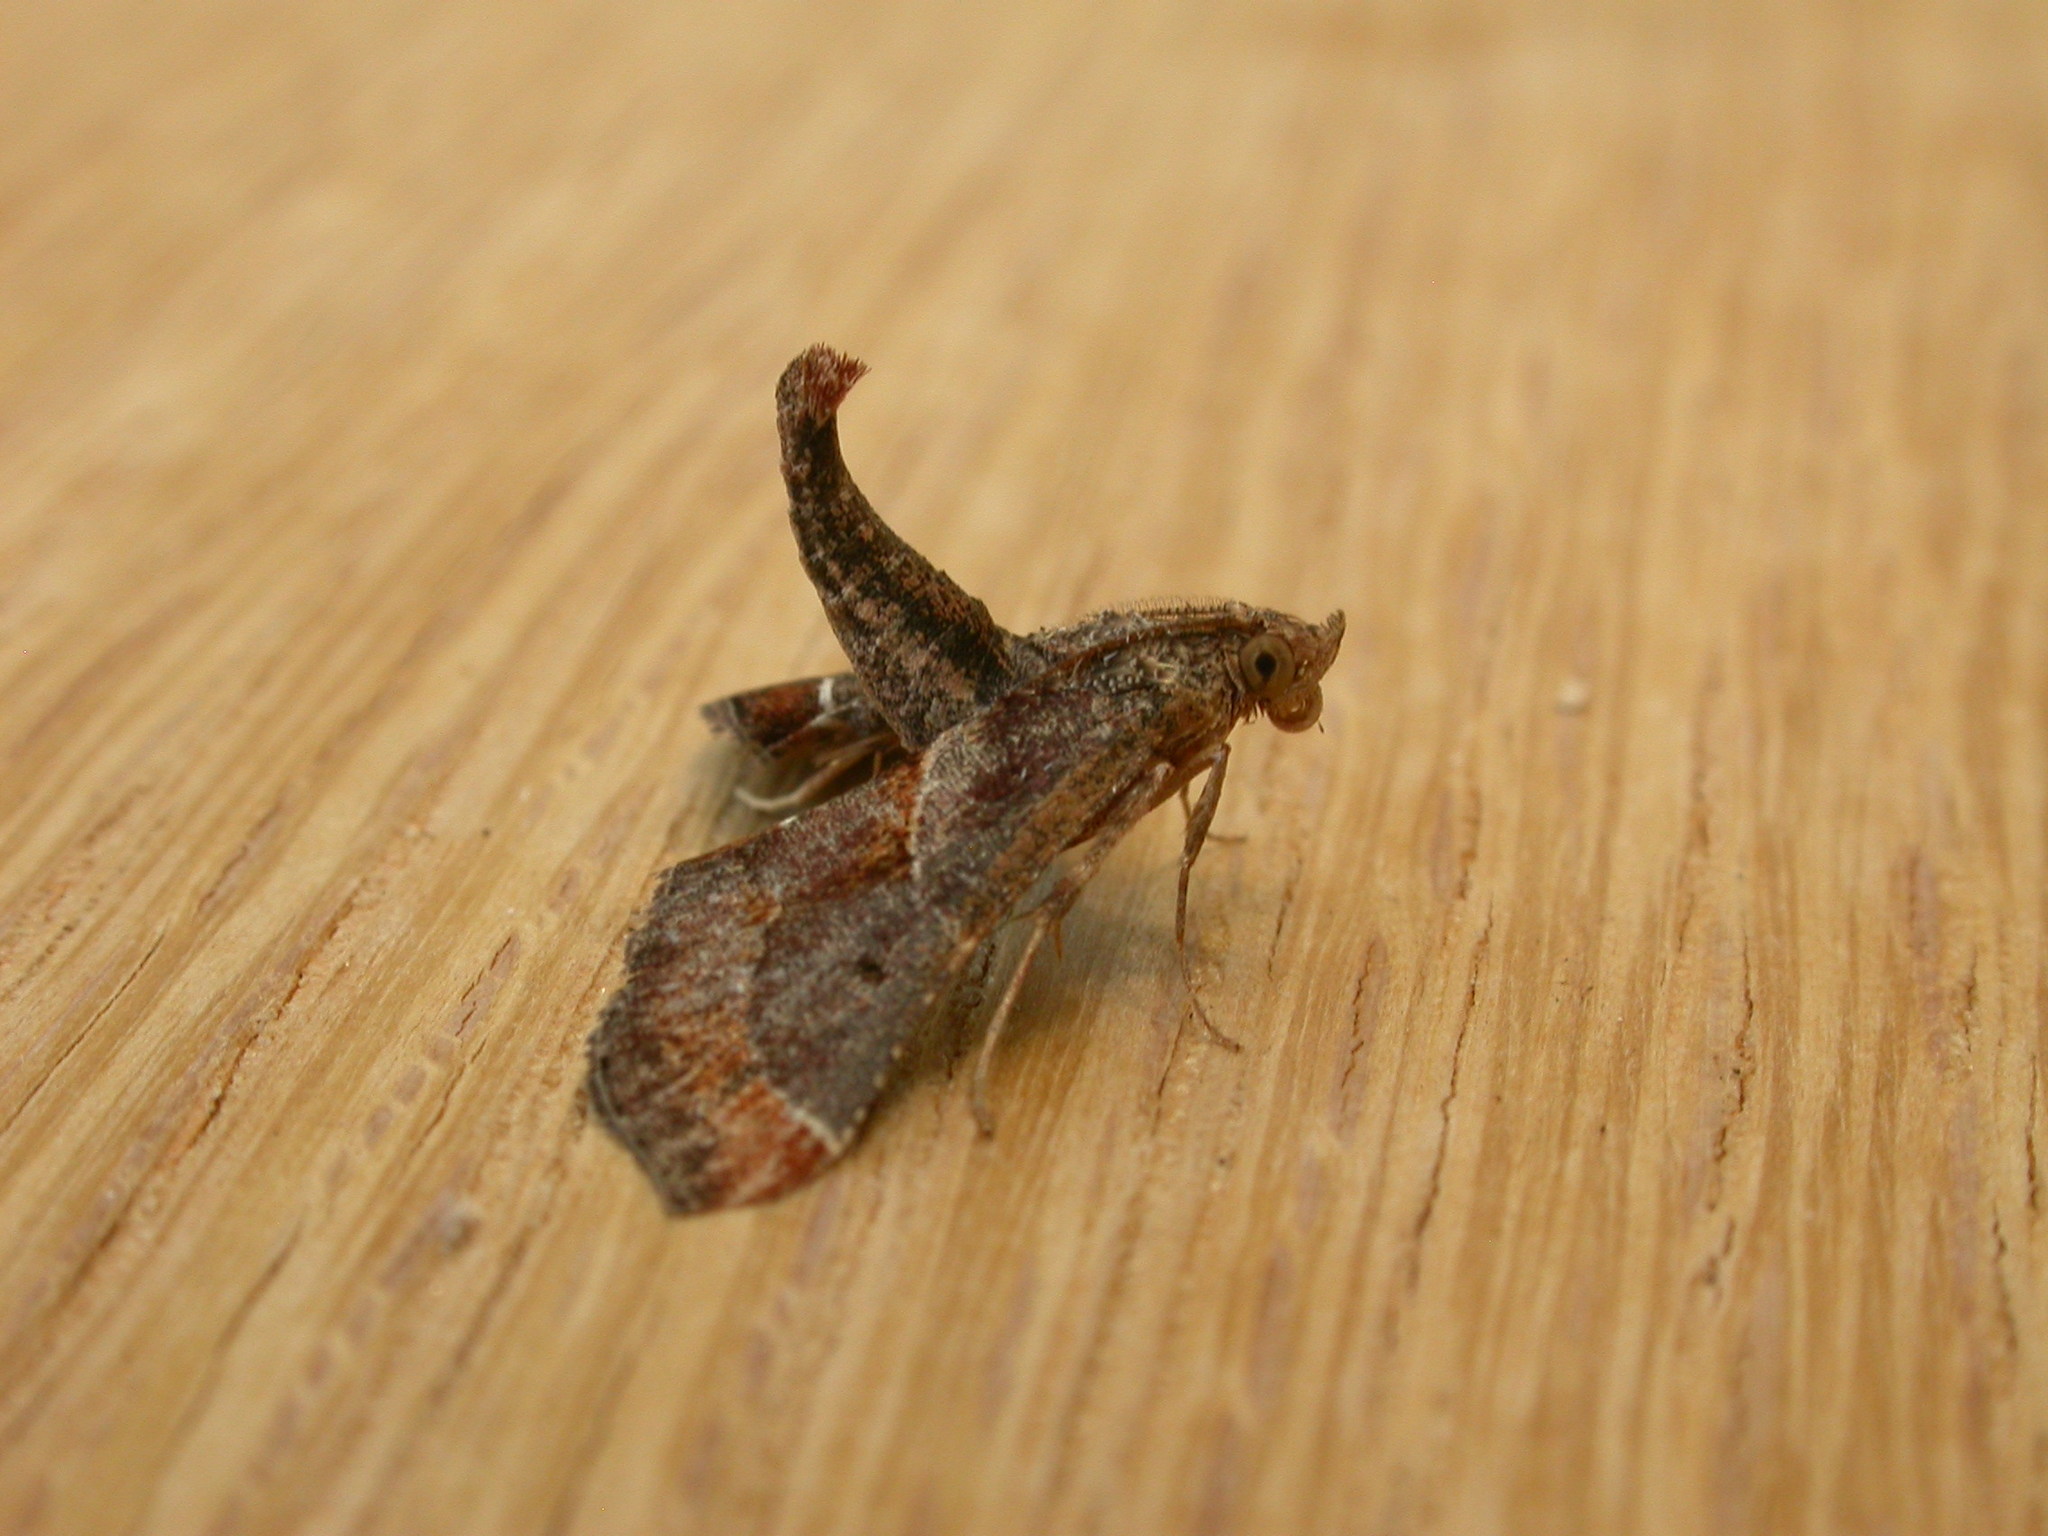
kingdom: Animalia
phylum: Arthropoda
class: Insecta
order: Lepidoptera
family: Pyralidae
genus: Gauna
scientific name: Gauna aegusalis
